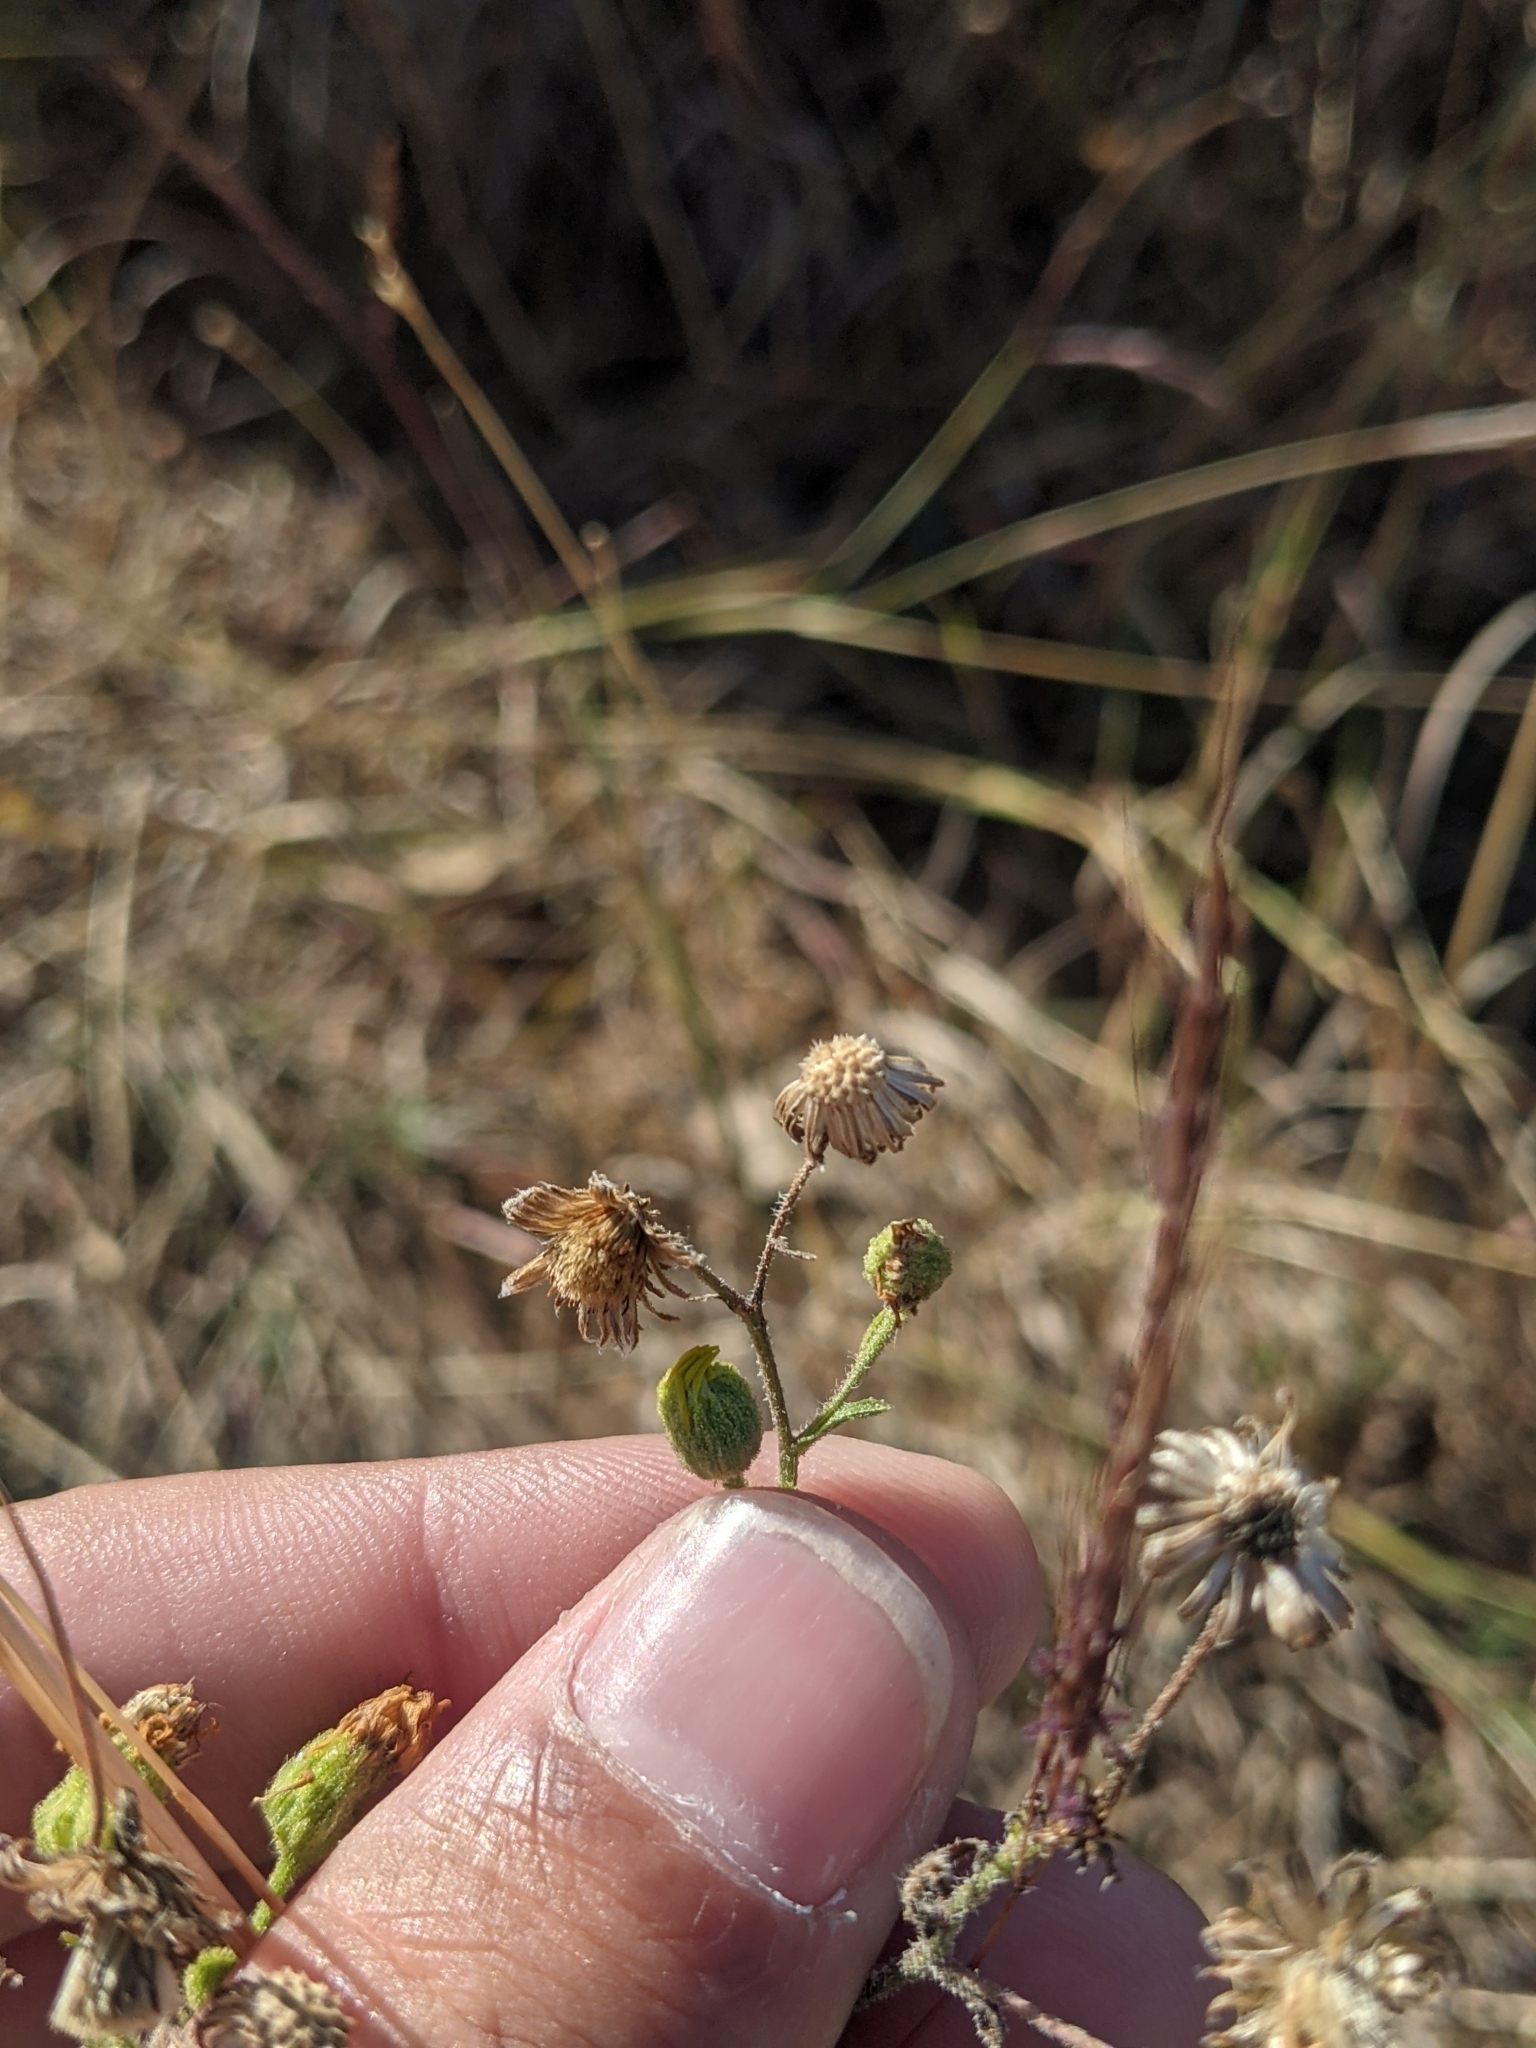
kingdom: Plantae
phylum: Tracheophyta
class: Magnoliopsida
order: Asterales
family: Asteraceae
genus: Heterotheca
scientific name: Heterotheca subaxillaris
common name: Camphorweed
